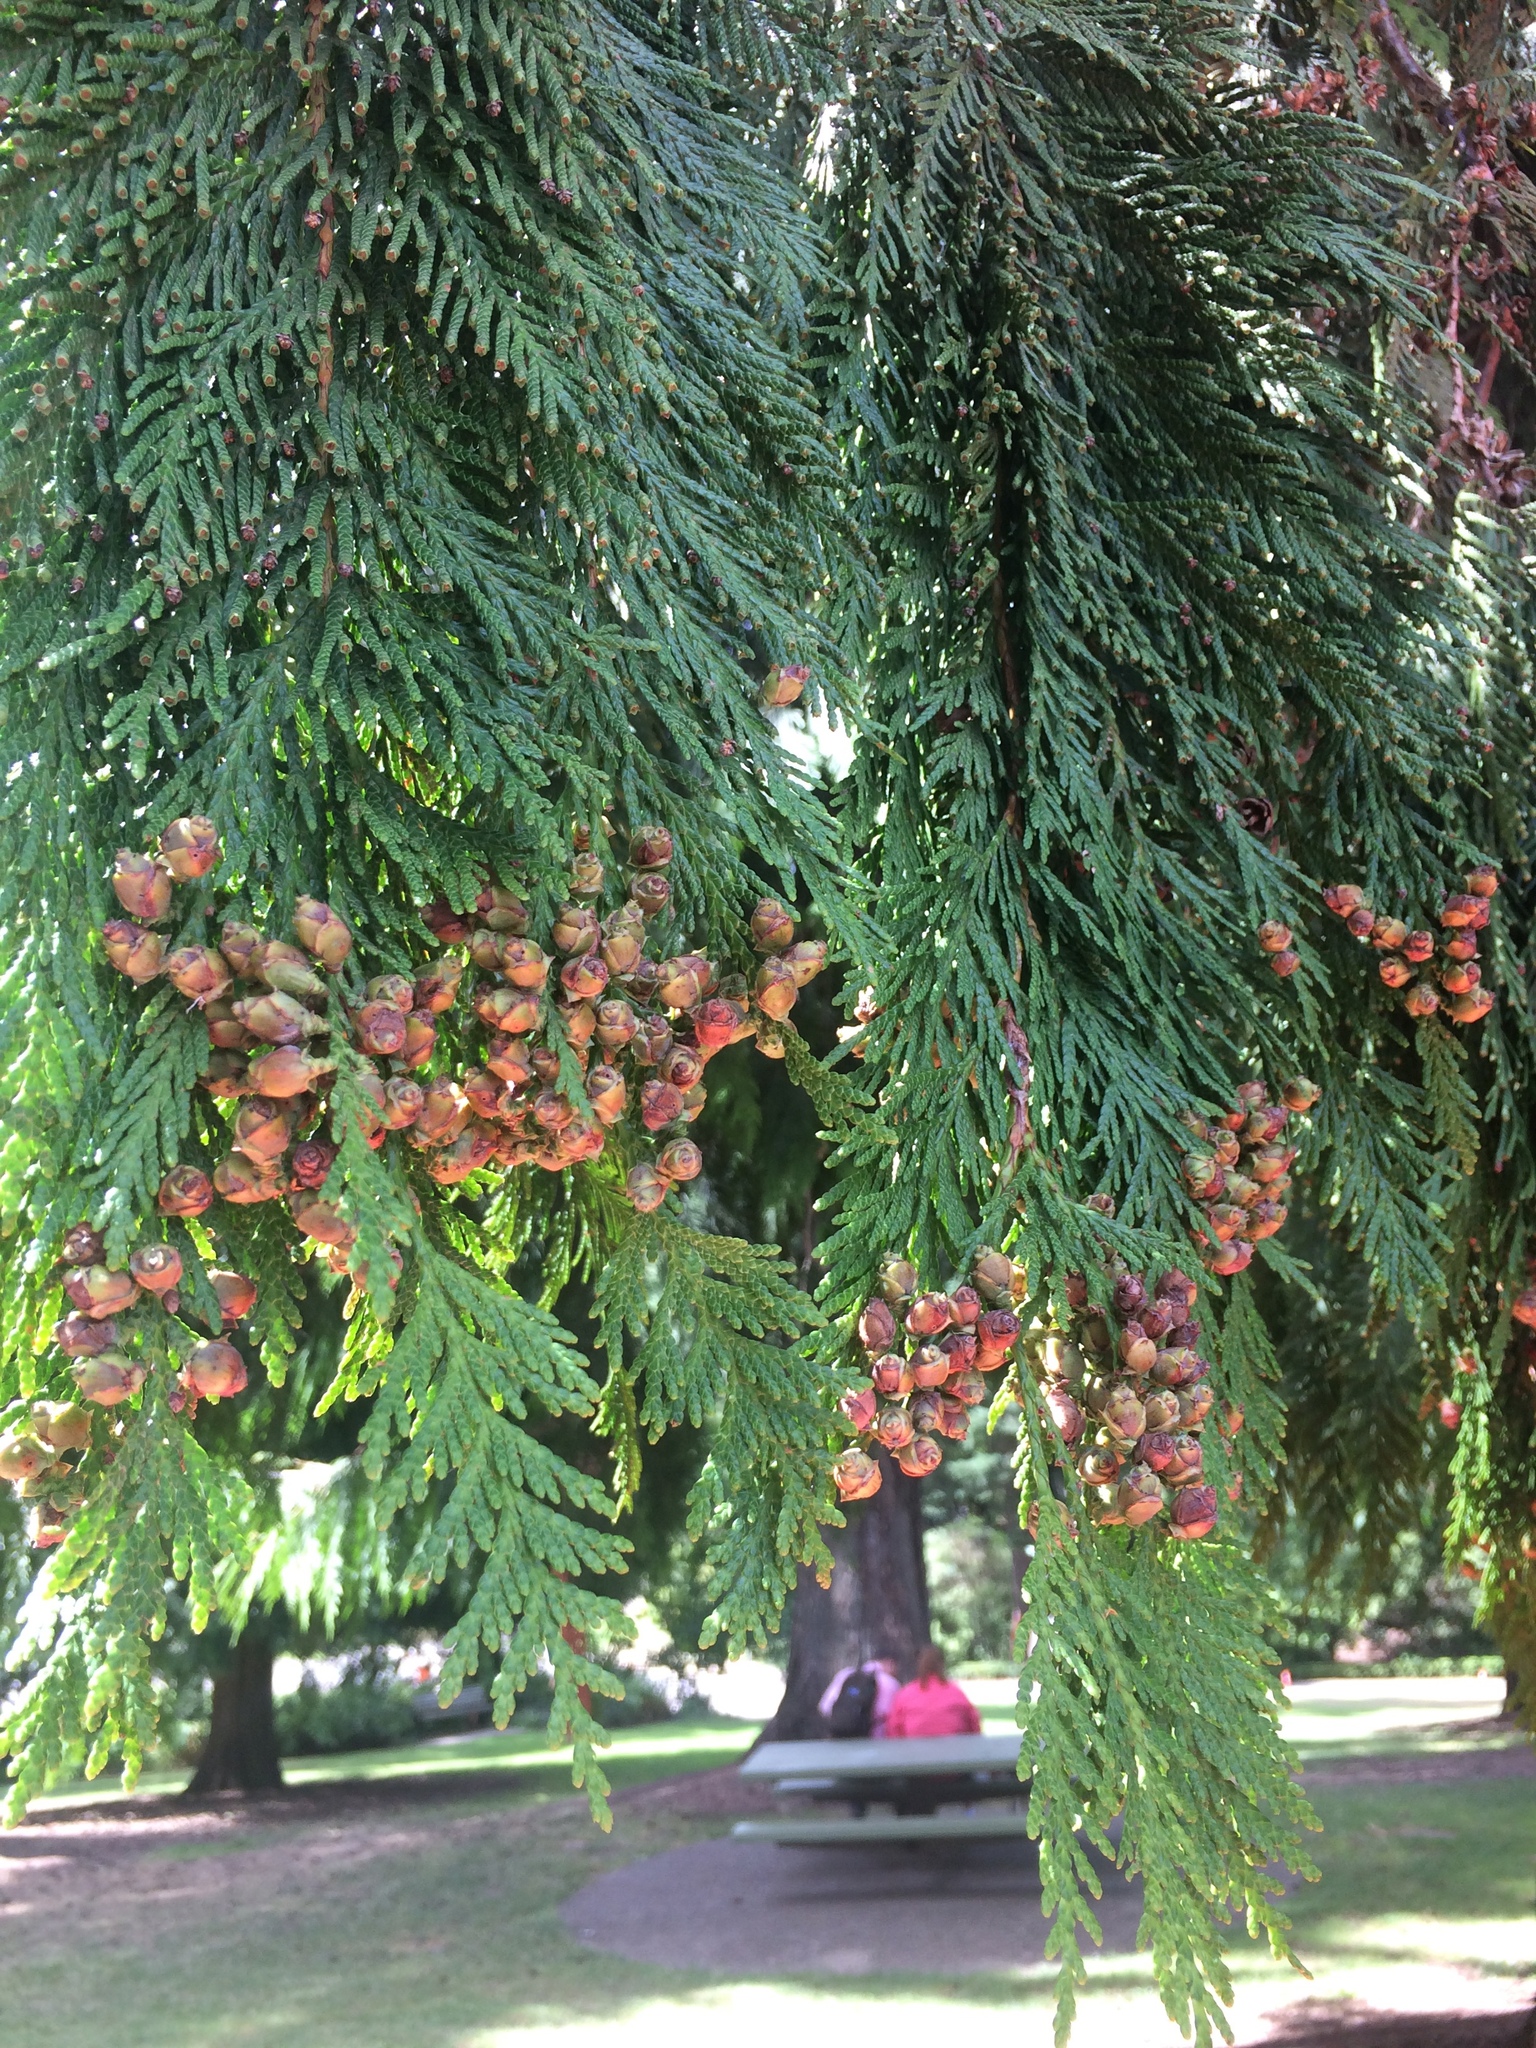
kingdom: Plantae
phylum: Tracheophyta
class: Pinopsida
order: Pinales
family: Cupressaceae
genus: Thuja
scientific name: Thuja plicata
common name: Western red-cedar
